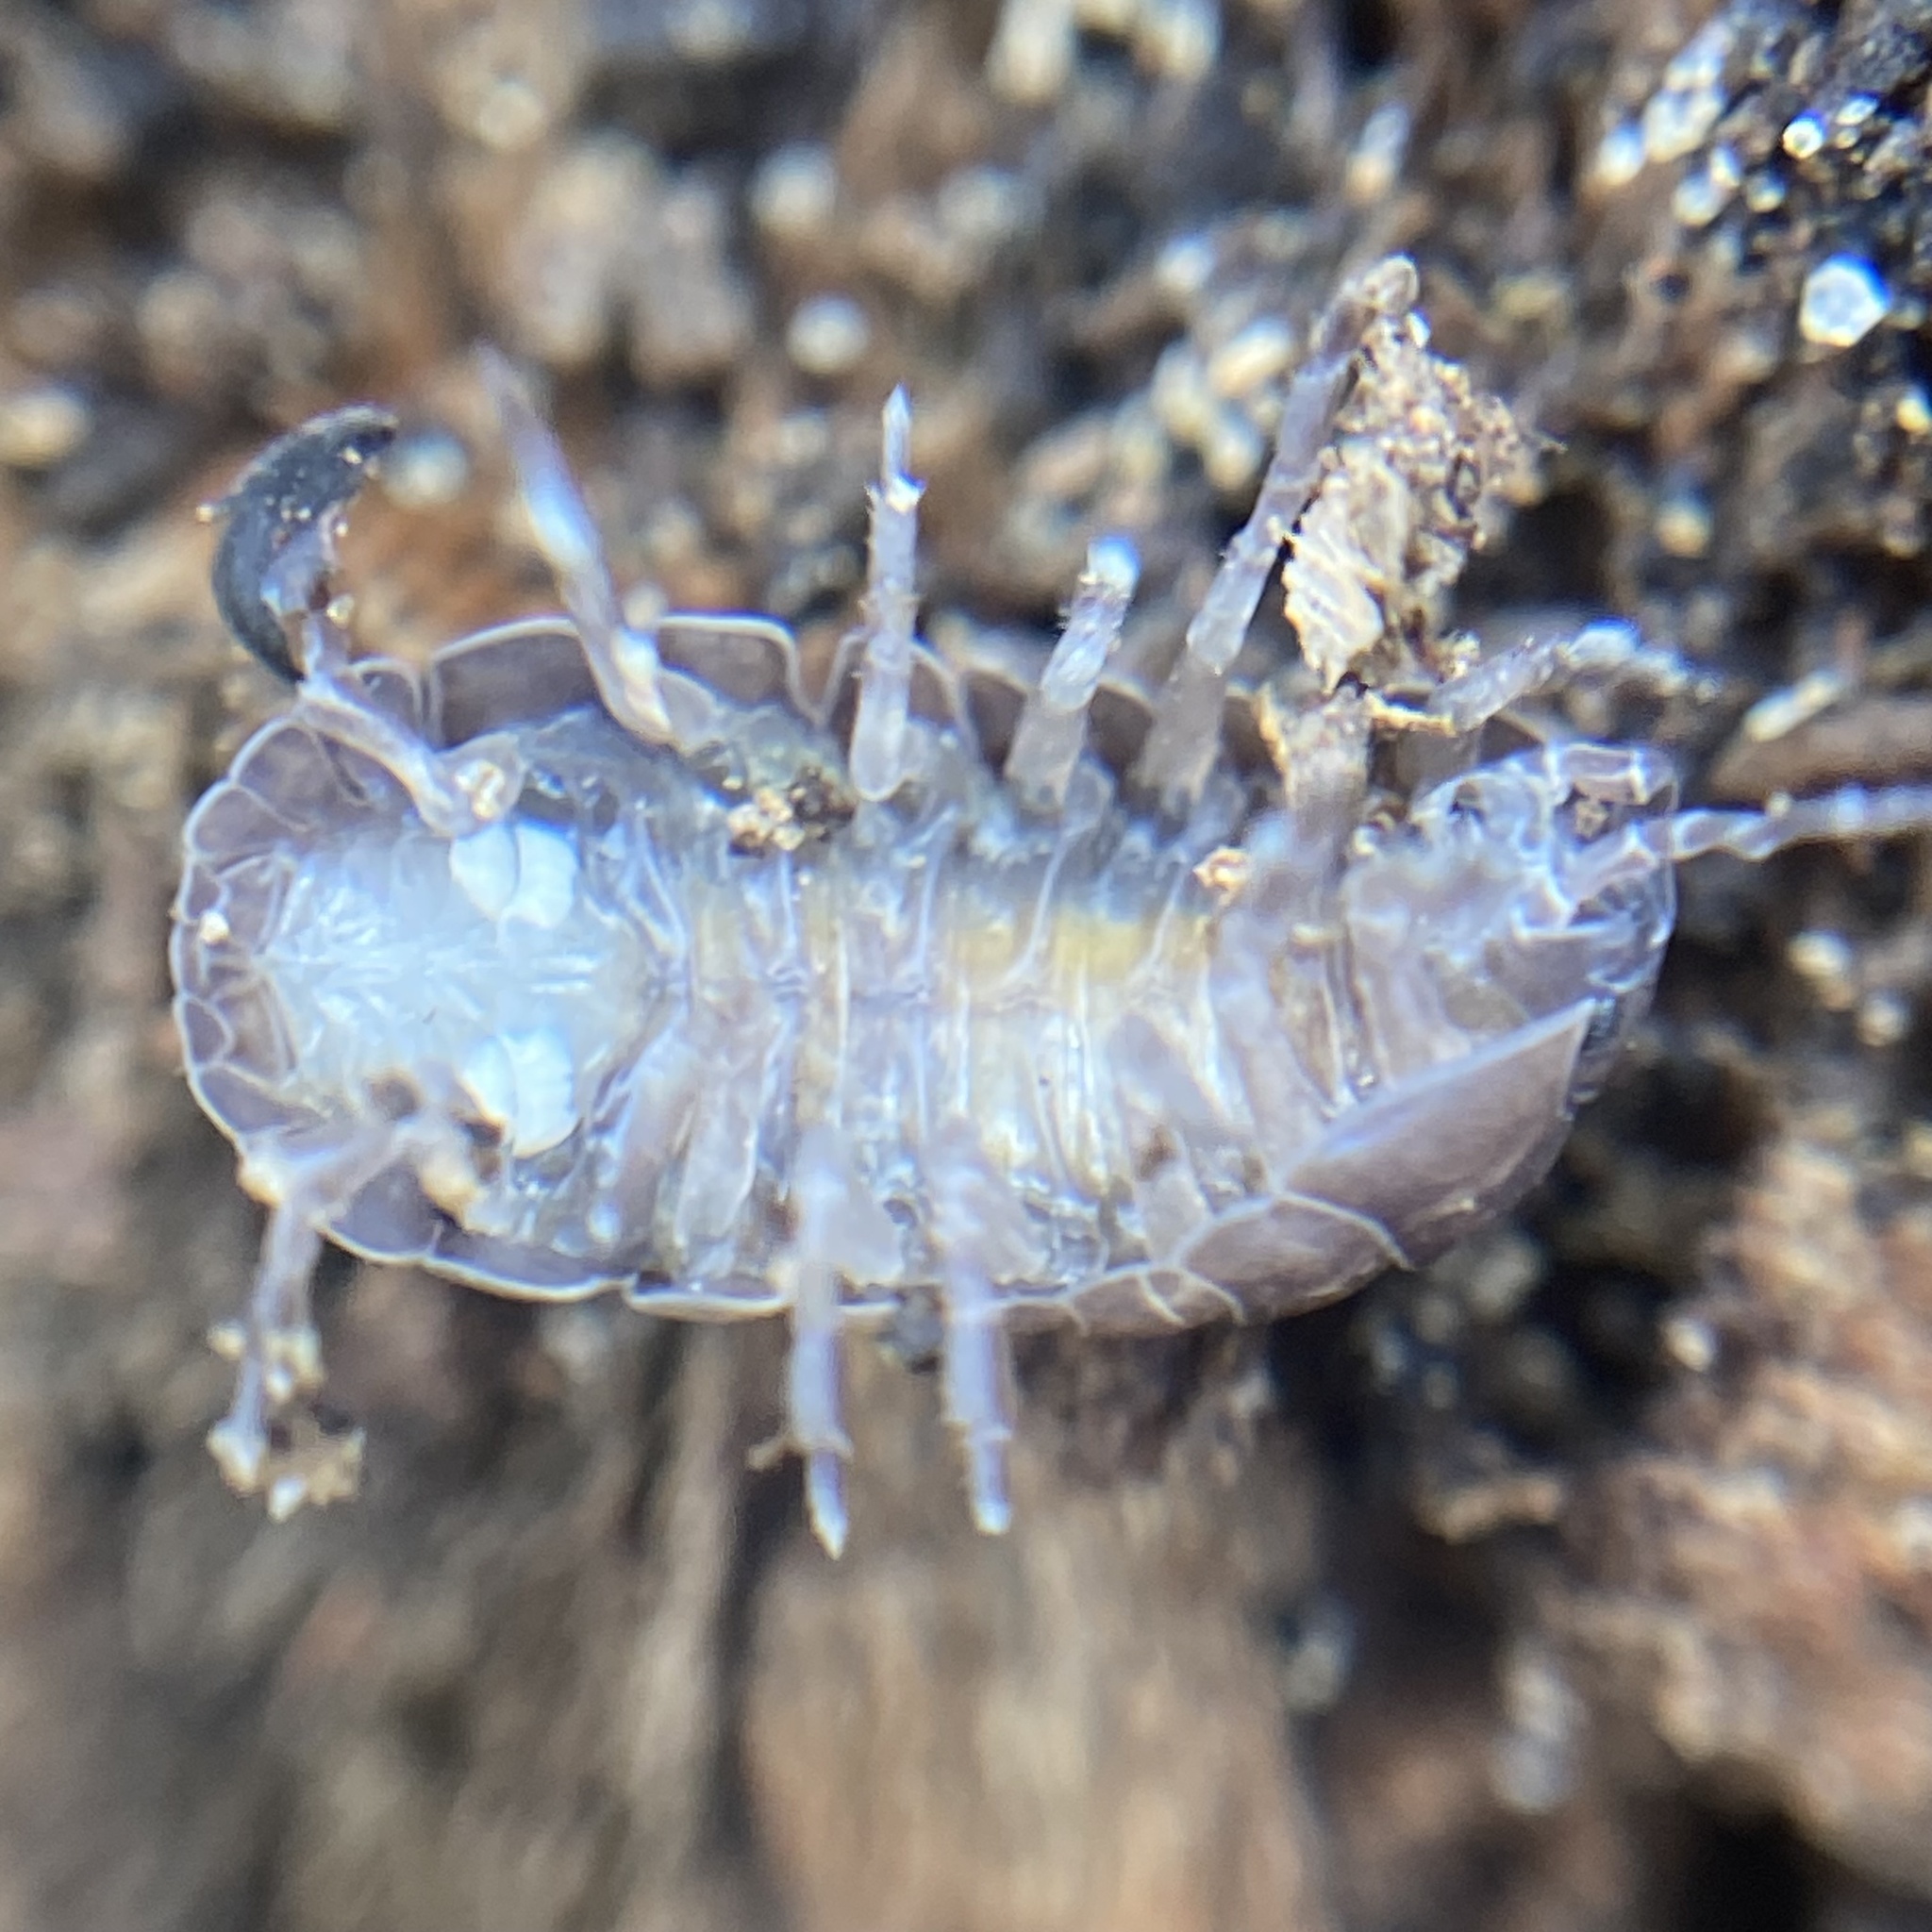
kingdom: Animalia
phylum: Arthropoda
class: Malacostraca
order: Isopoda
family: Armadillidiidae
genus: Armadillidium
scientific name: Armadillidium vulgare
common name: Common pill woodlouse
